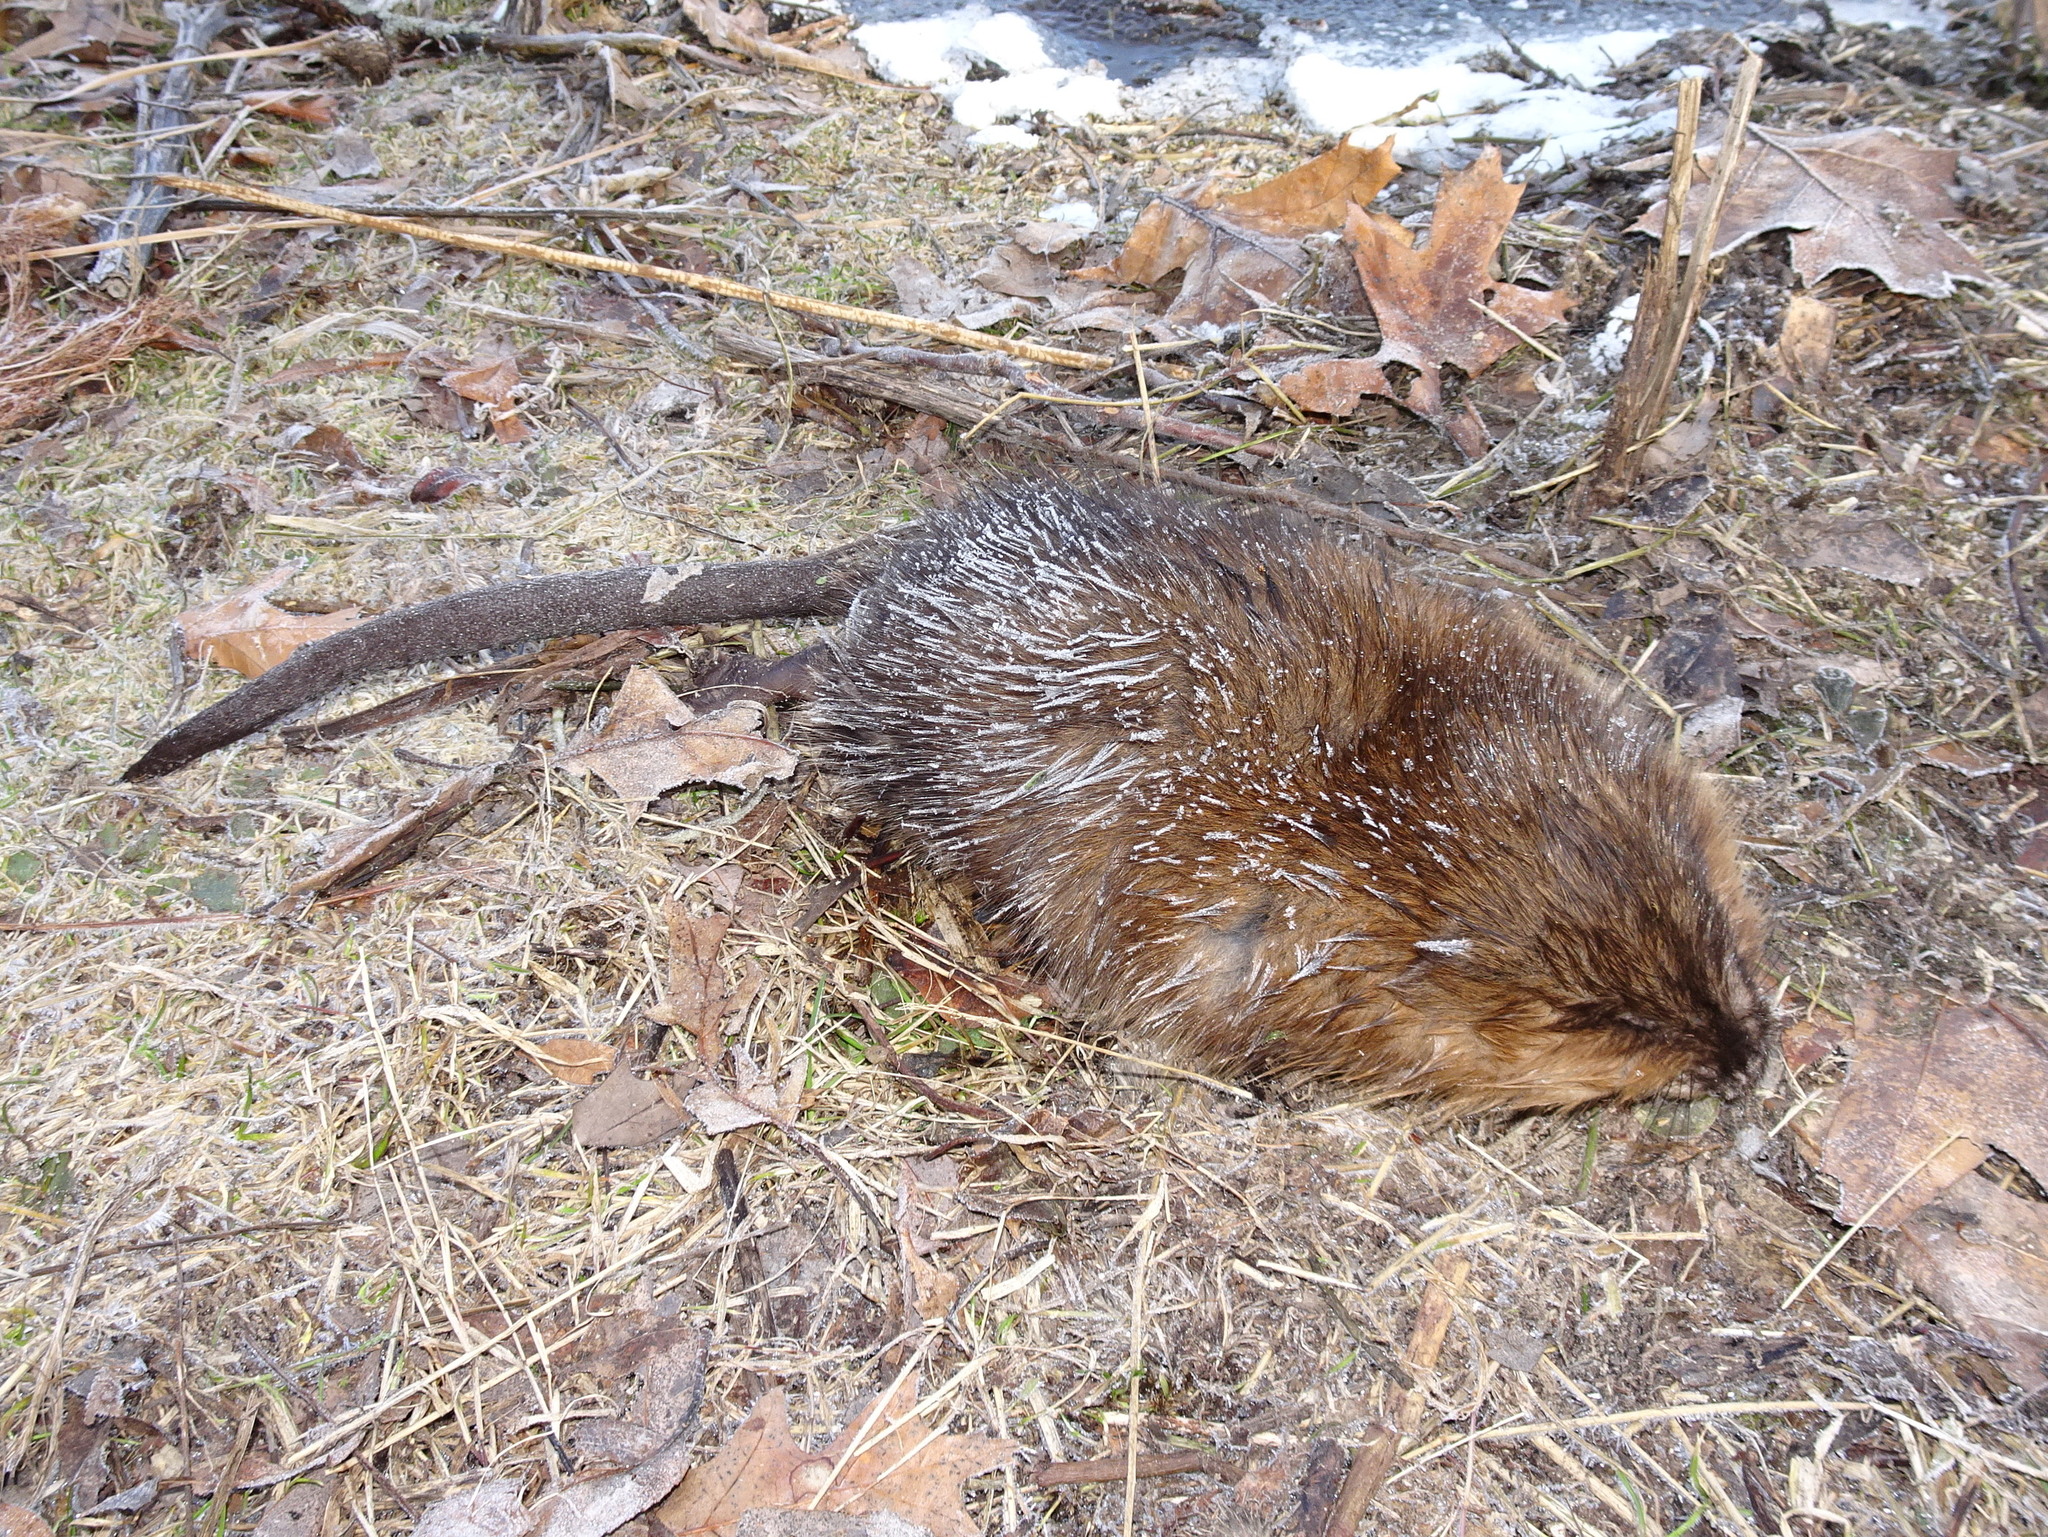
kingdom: Animalia
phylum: Chordata
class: Mammalia
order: Rodentia
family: Cricetidae
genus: Ondatra
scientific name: Ondatra zibethicus
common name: Muskrat
